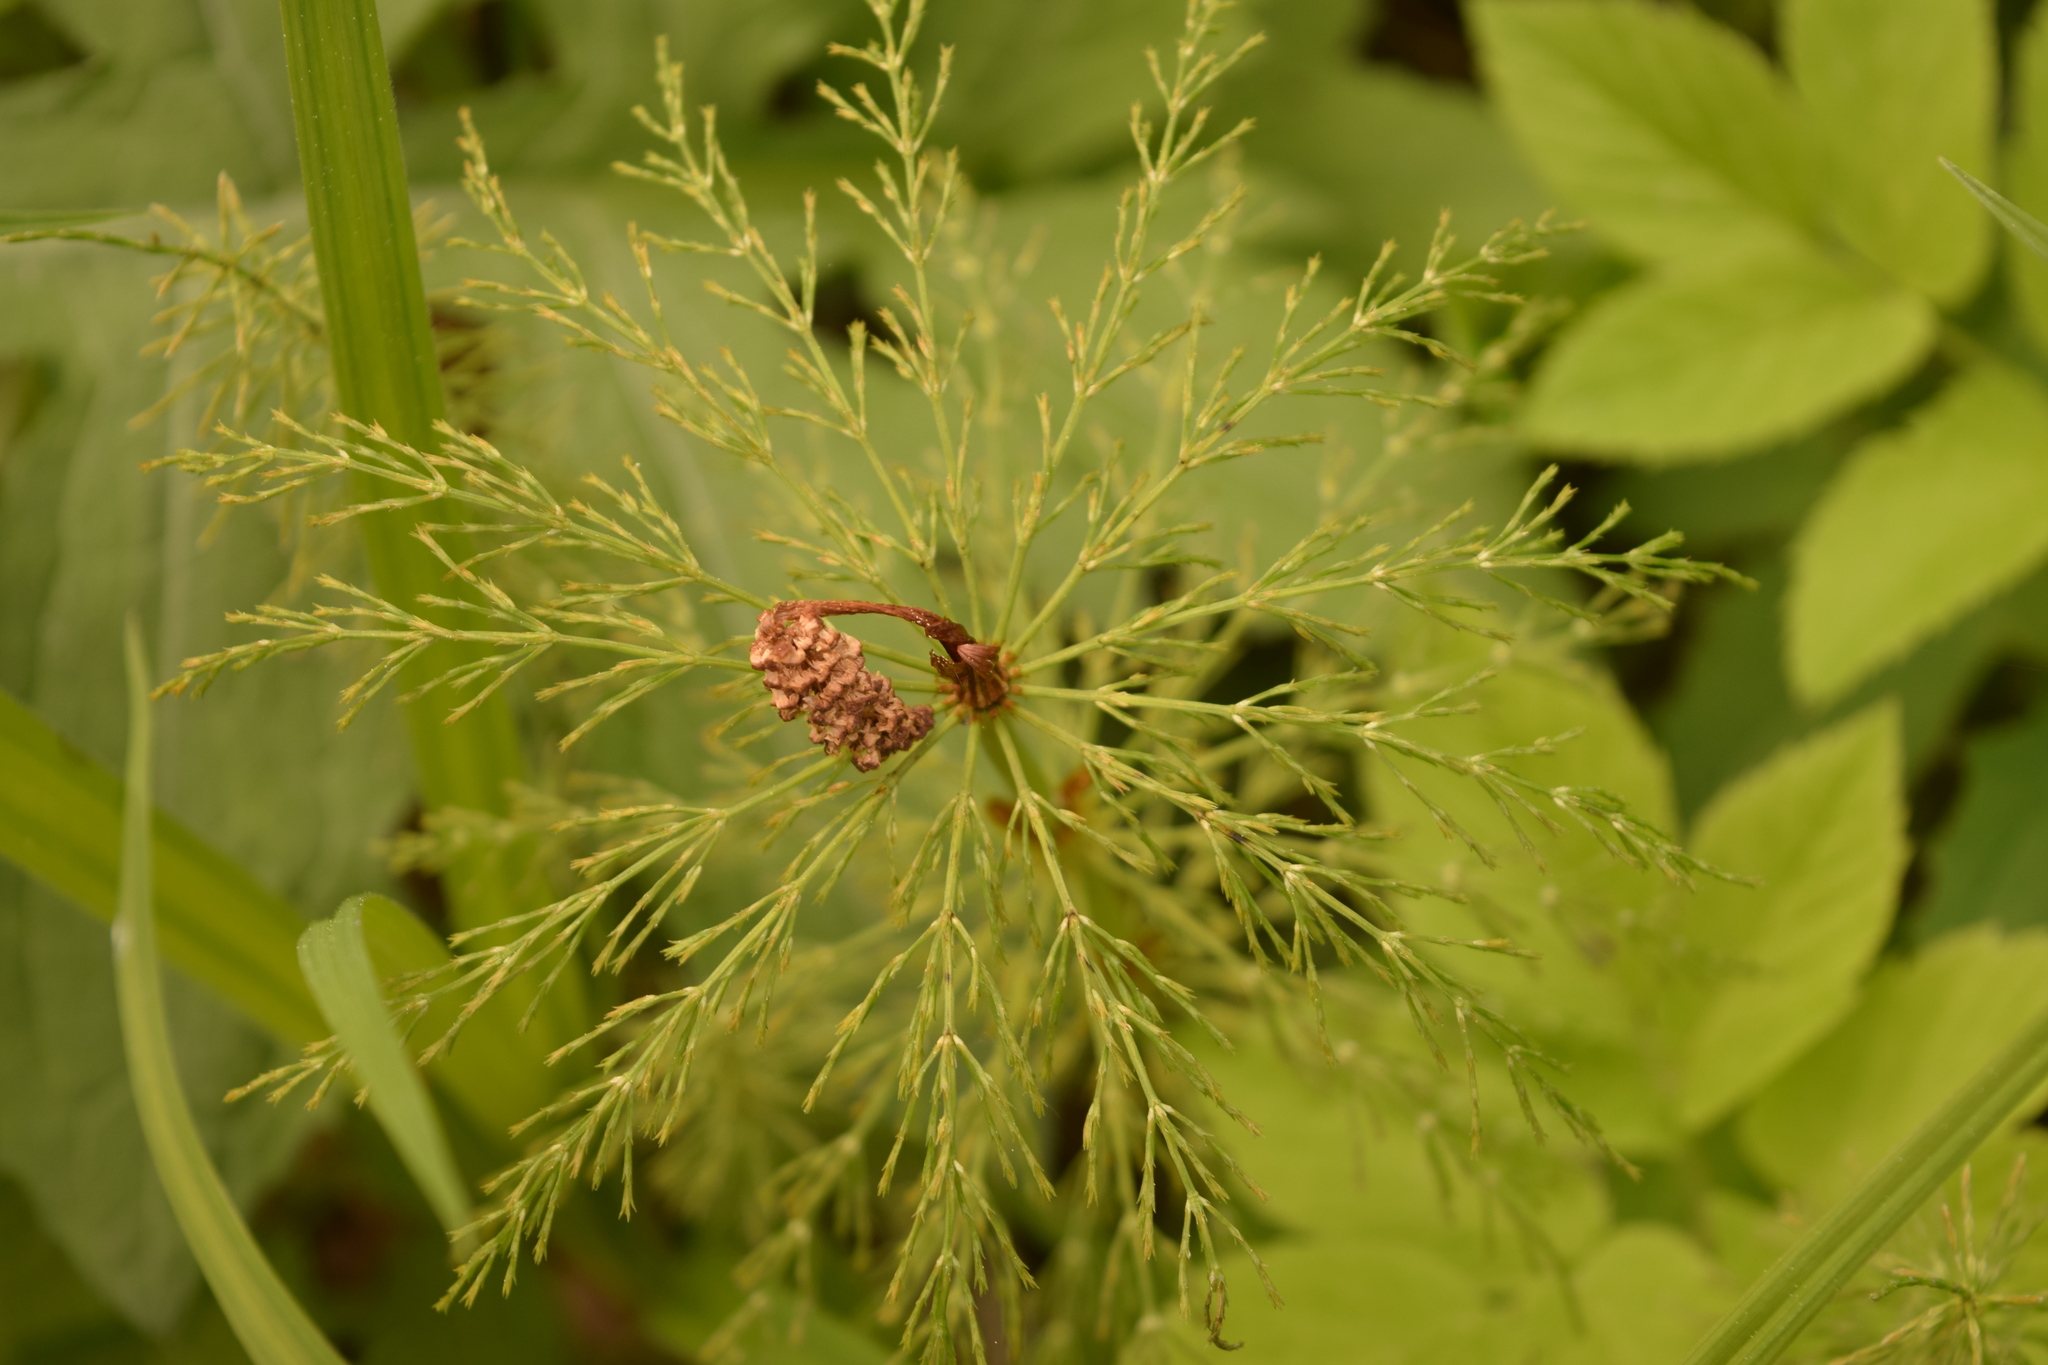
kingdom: Plantae
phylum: Tracheophyta
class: Polypodiopsida
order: Equisetales
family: Equisetaceae
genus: Equisetum
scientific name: Equisetum sylvaticum
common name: Wood horsetail
